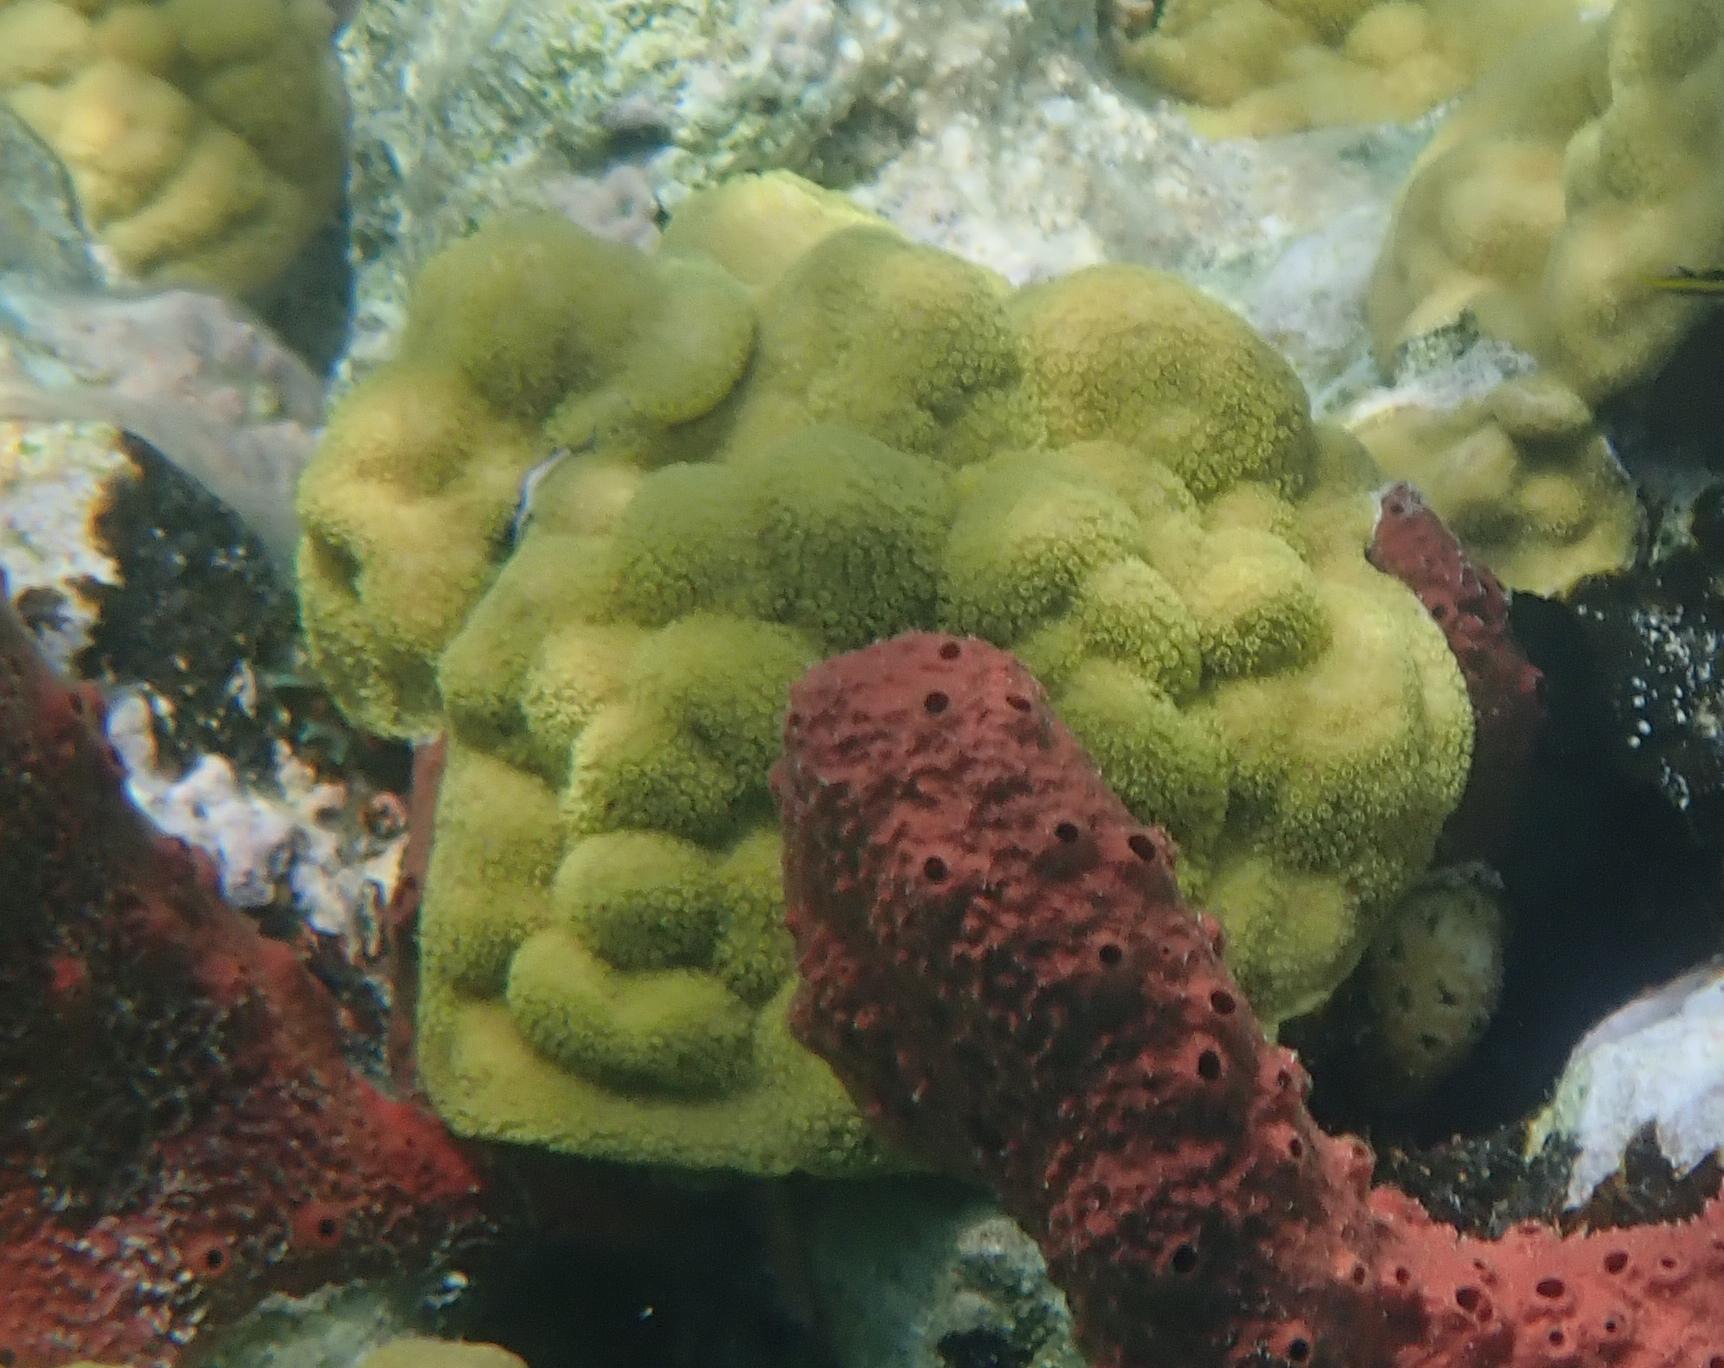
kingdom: Animalia
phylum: Cnidaria
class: Anthozoa
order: Scleractinia
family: Poritidae
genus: Porites
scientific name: Porites astreoides
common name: Mustard hill coral
